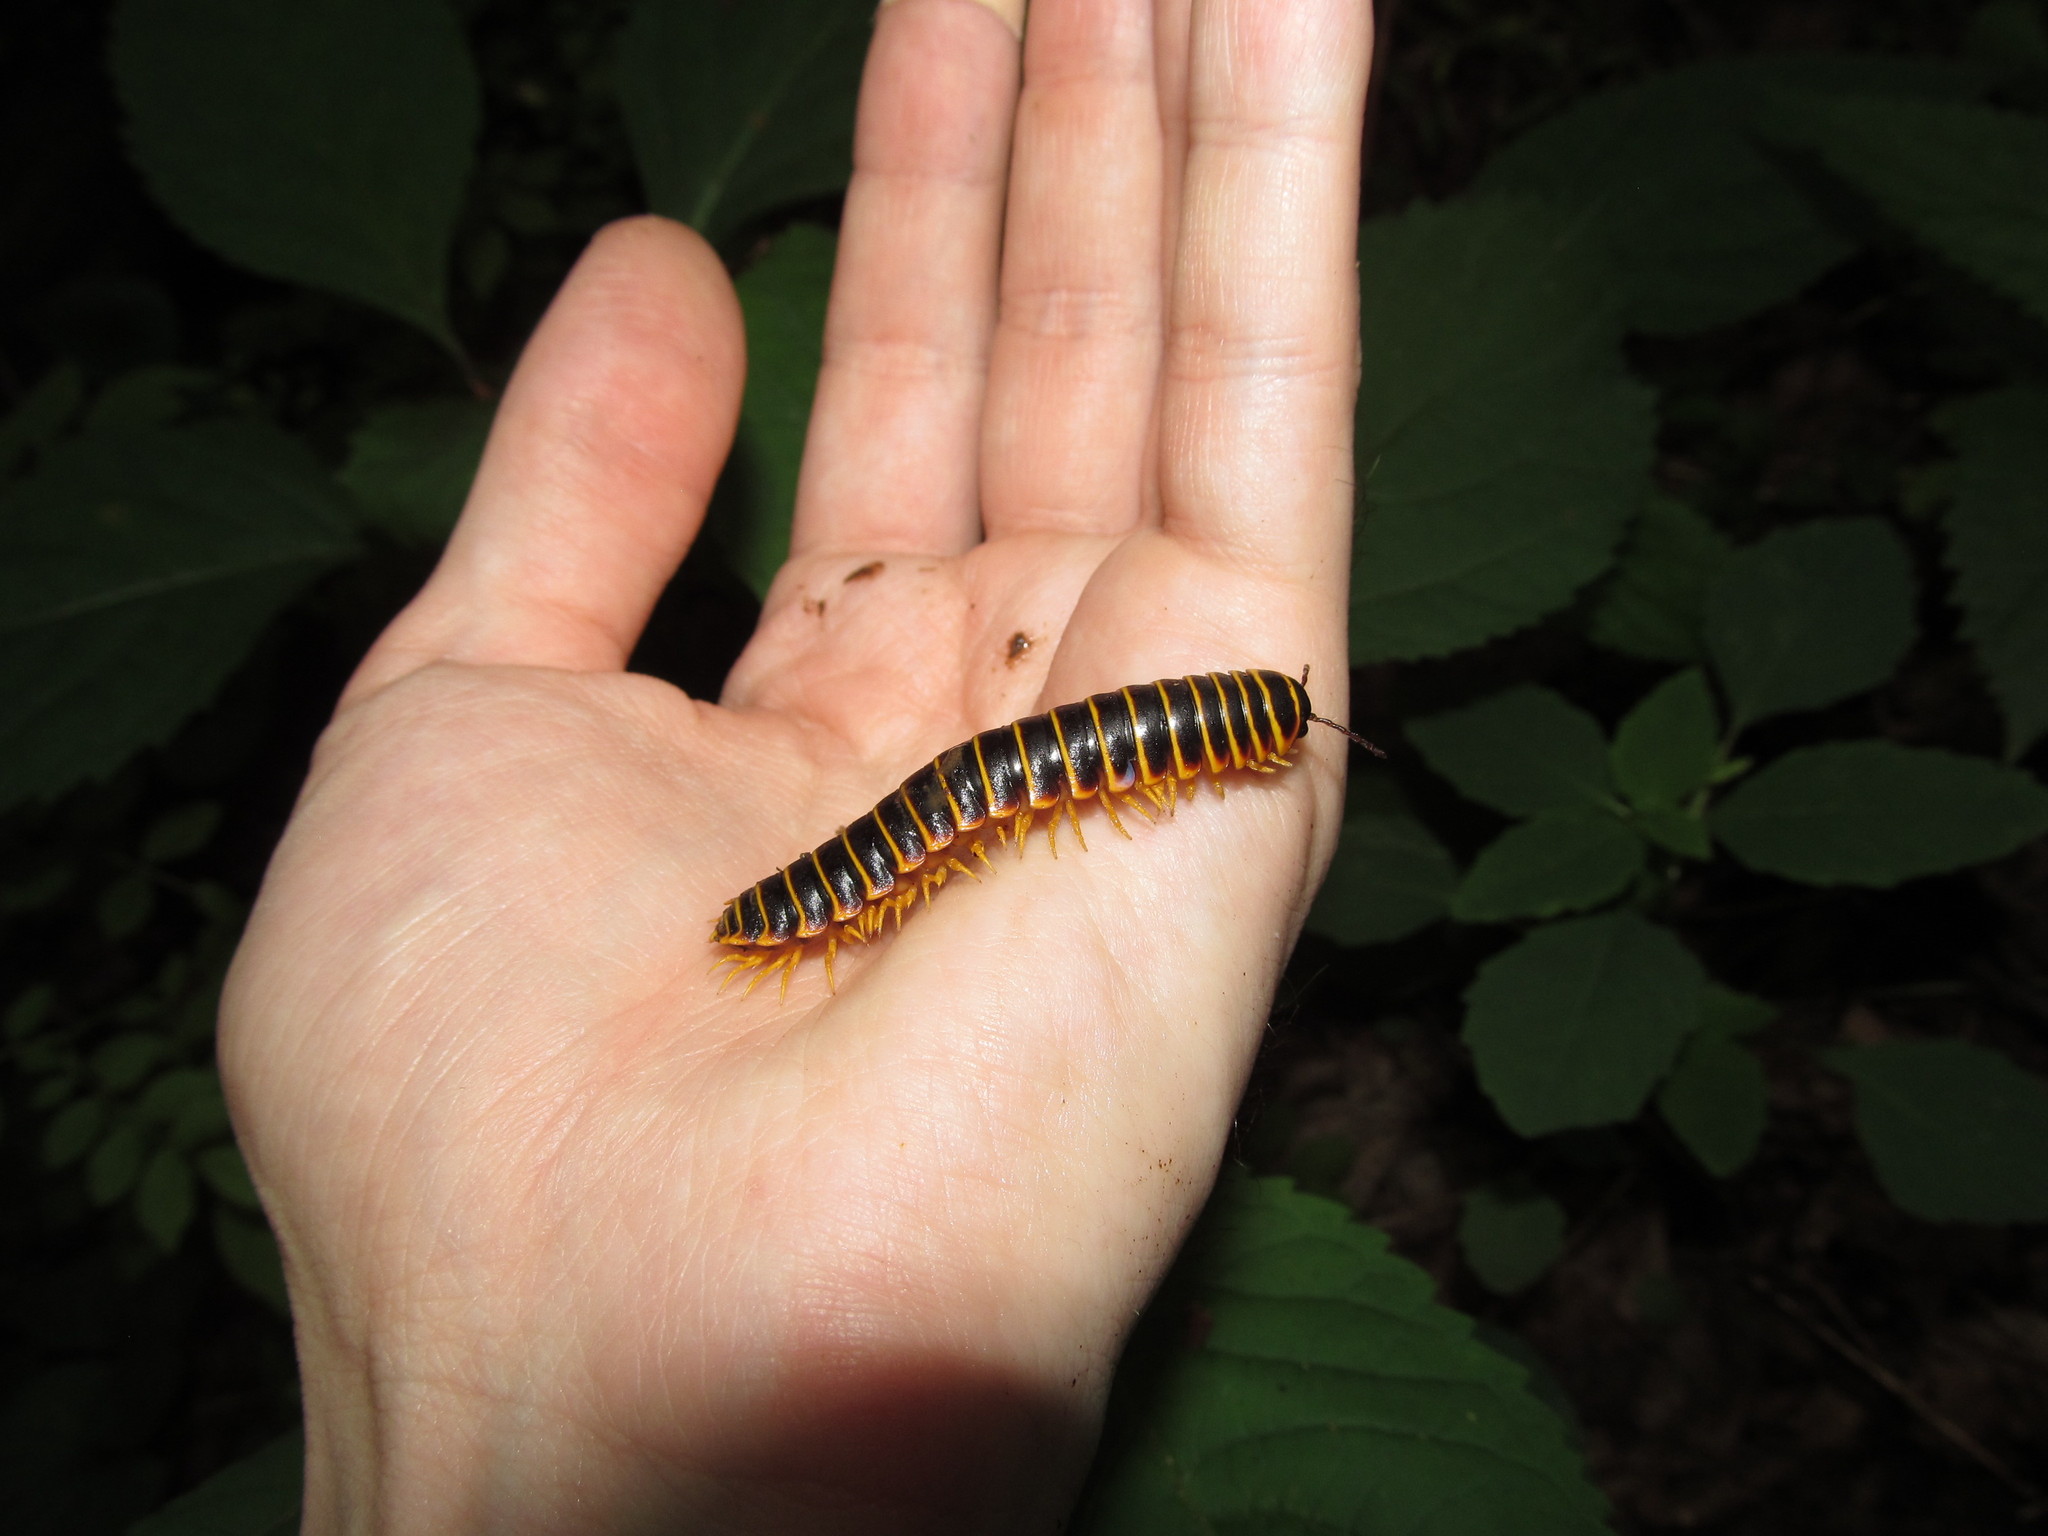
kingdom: Animalia
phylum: Arthropoda
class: Diplopoda
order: Polydesmida
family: Xystodesmidae
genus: Apheloria
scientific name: Apheloria virginiensis
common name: Black-and-gold flat millipede
